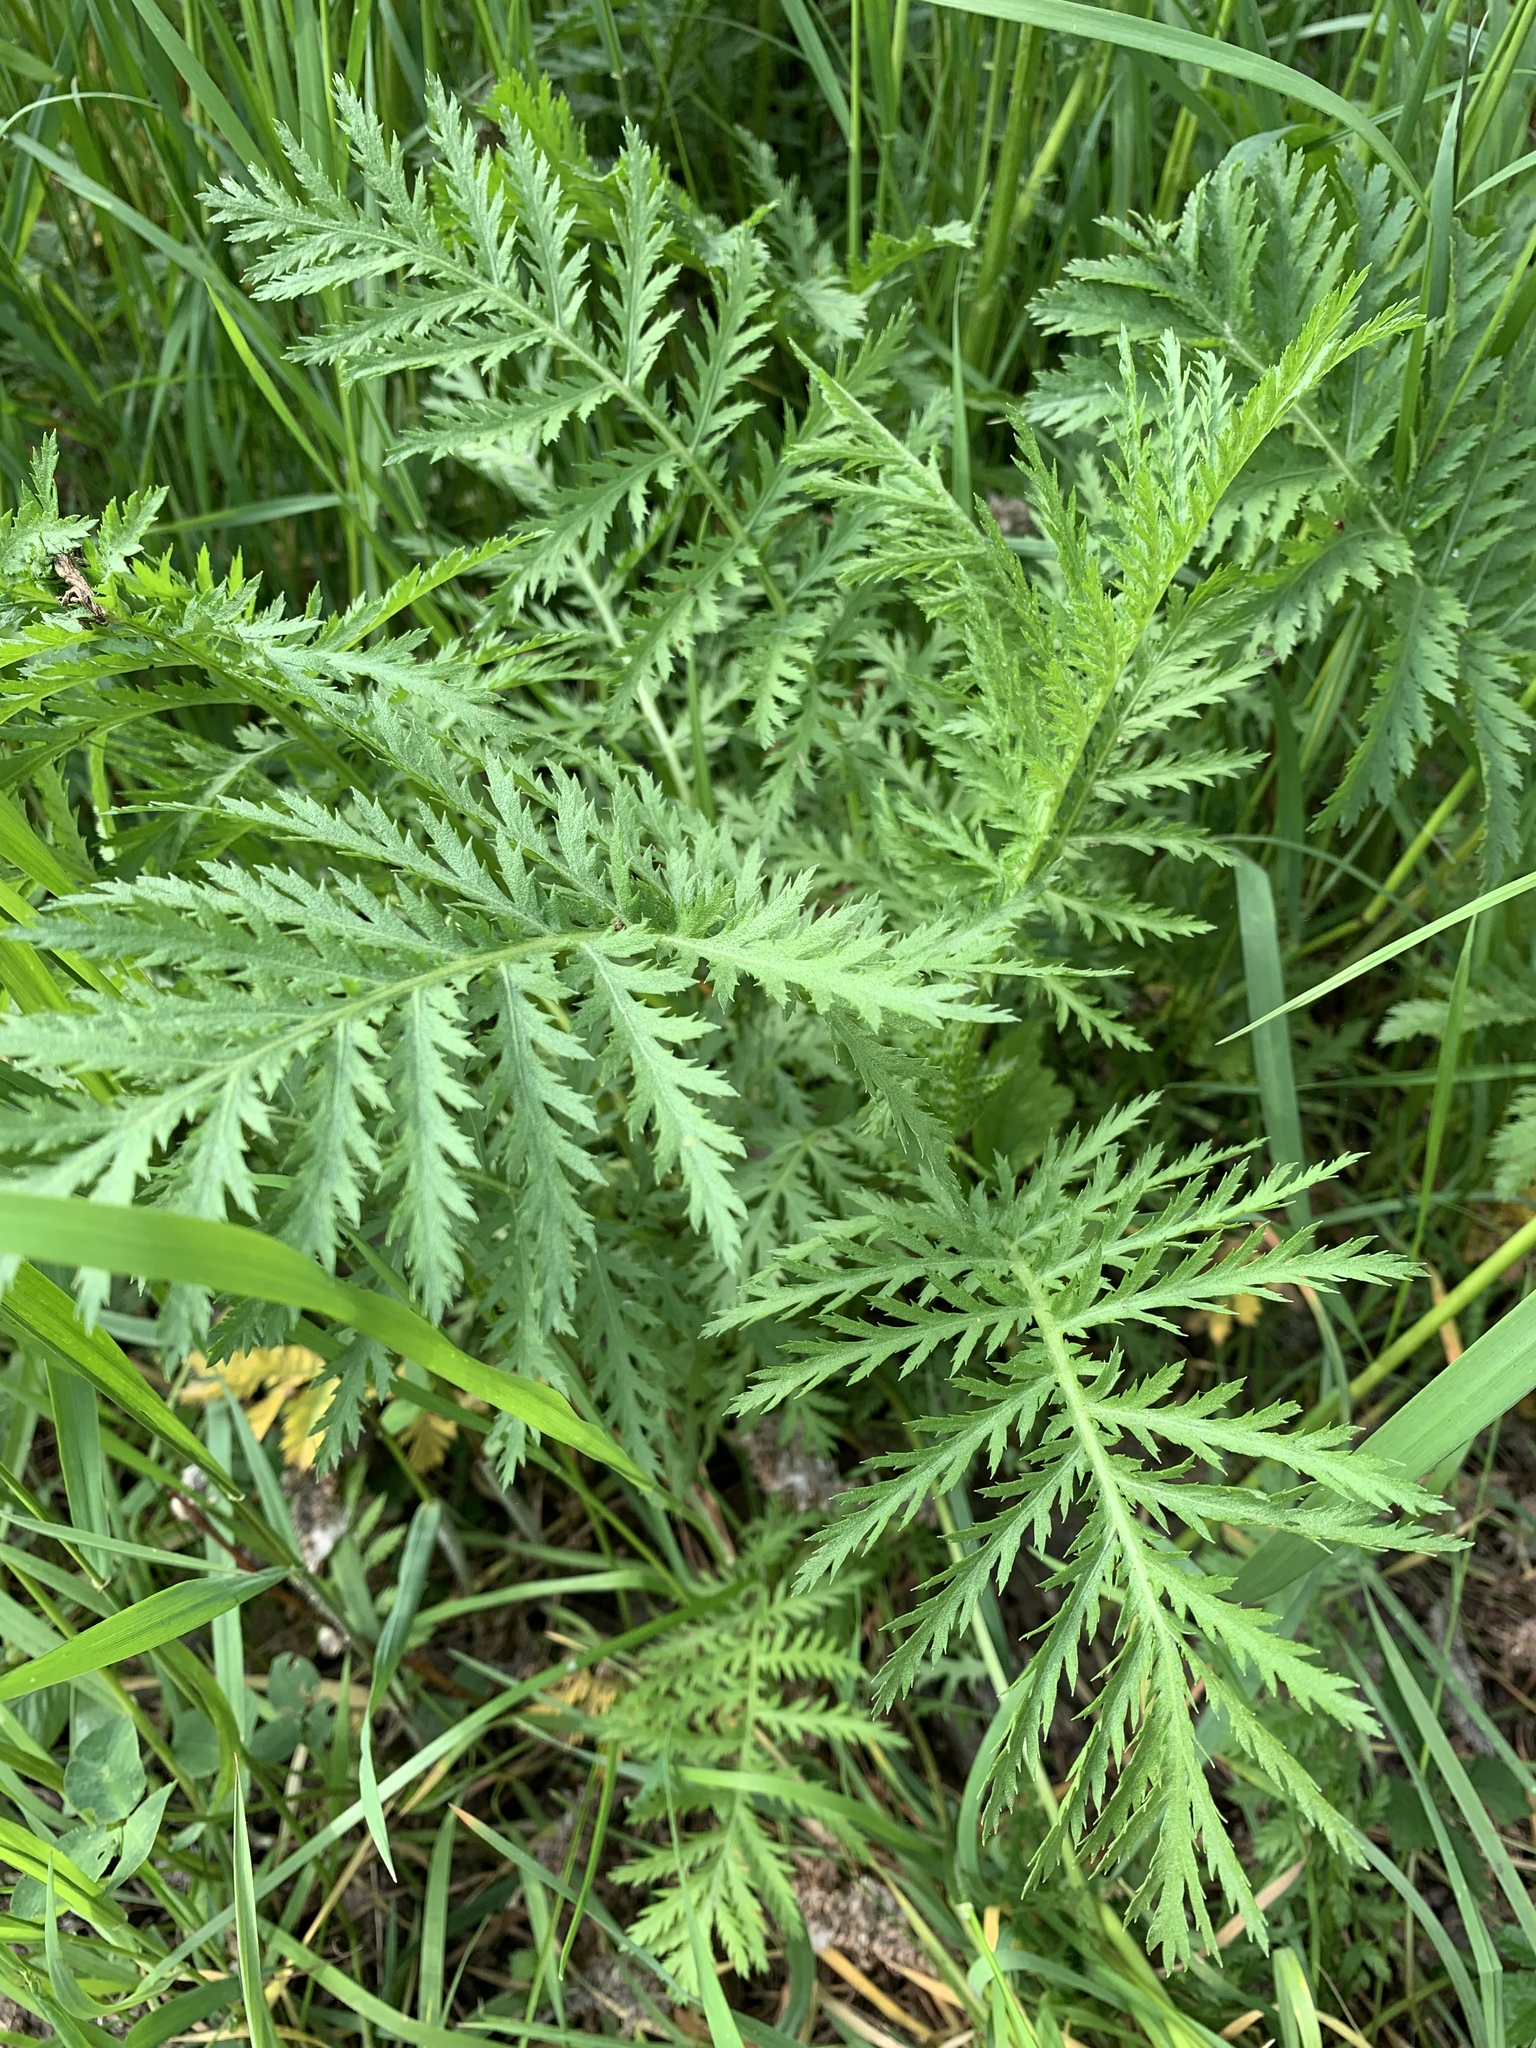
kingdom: Plantae
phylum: Tracheophyta
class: Magnoliopsida
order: Asterales
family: Asteraceae
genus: Tanacetum
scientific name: Tanacetum vulgare
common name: Common tansy
